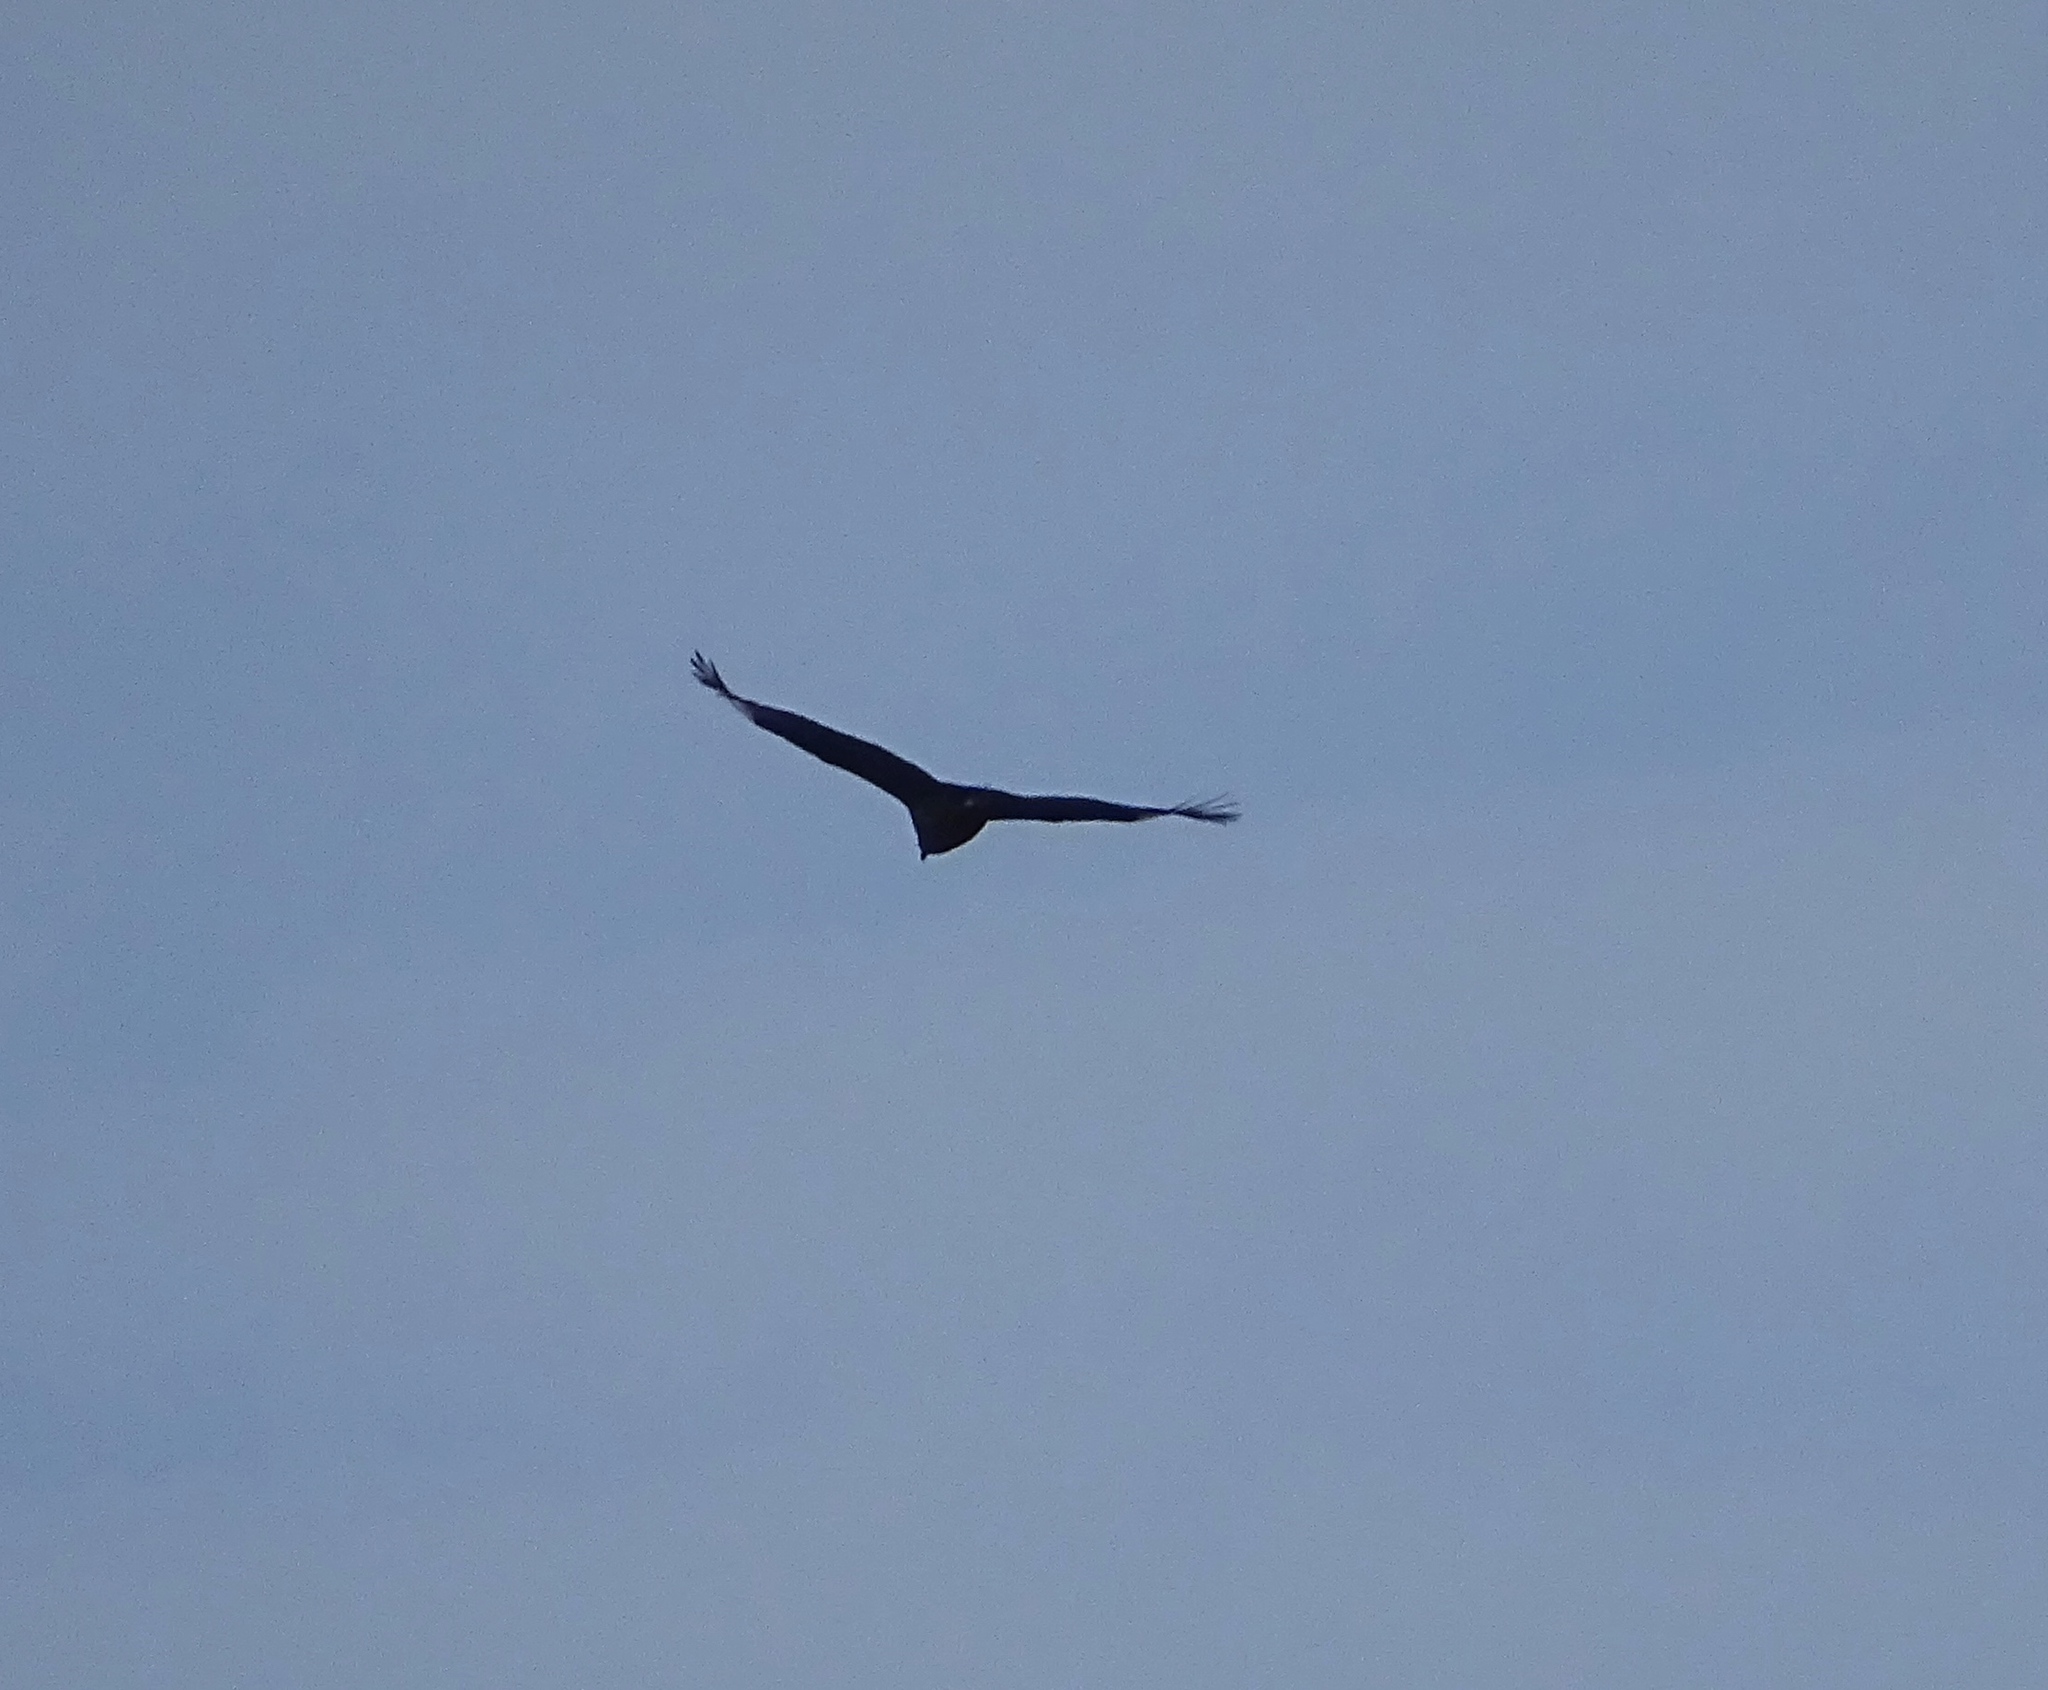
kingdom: Animalia
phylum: Chordata
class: Aves
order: Accipitriformes
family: Cathartidae
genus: Coragyps
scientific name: Coragyps atratus
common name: Black vulture
